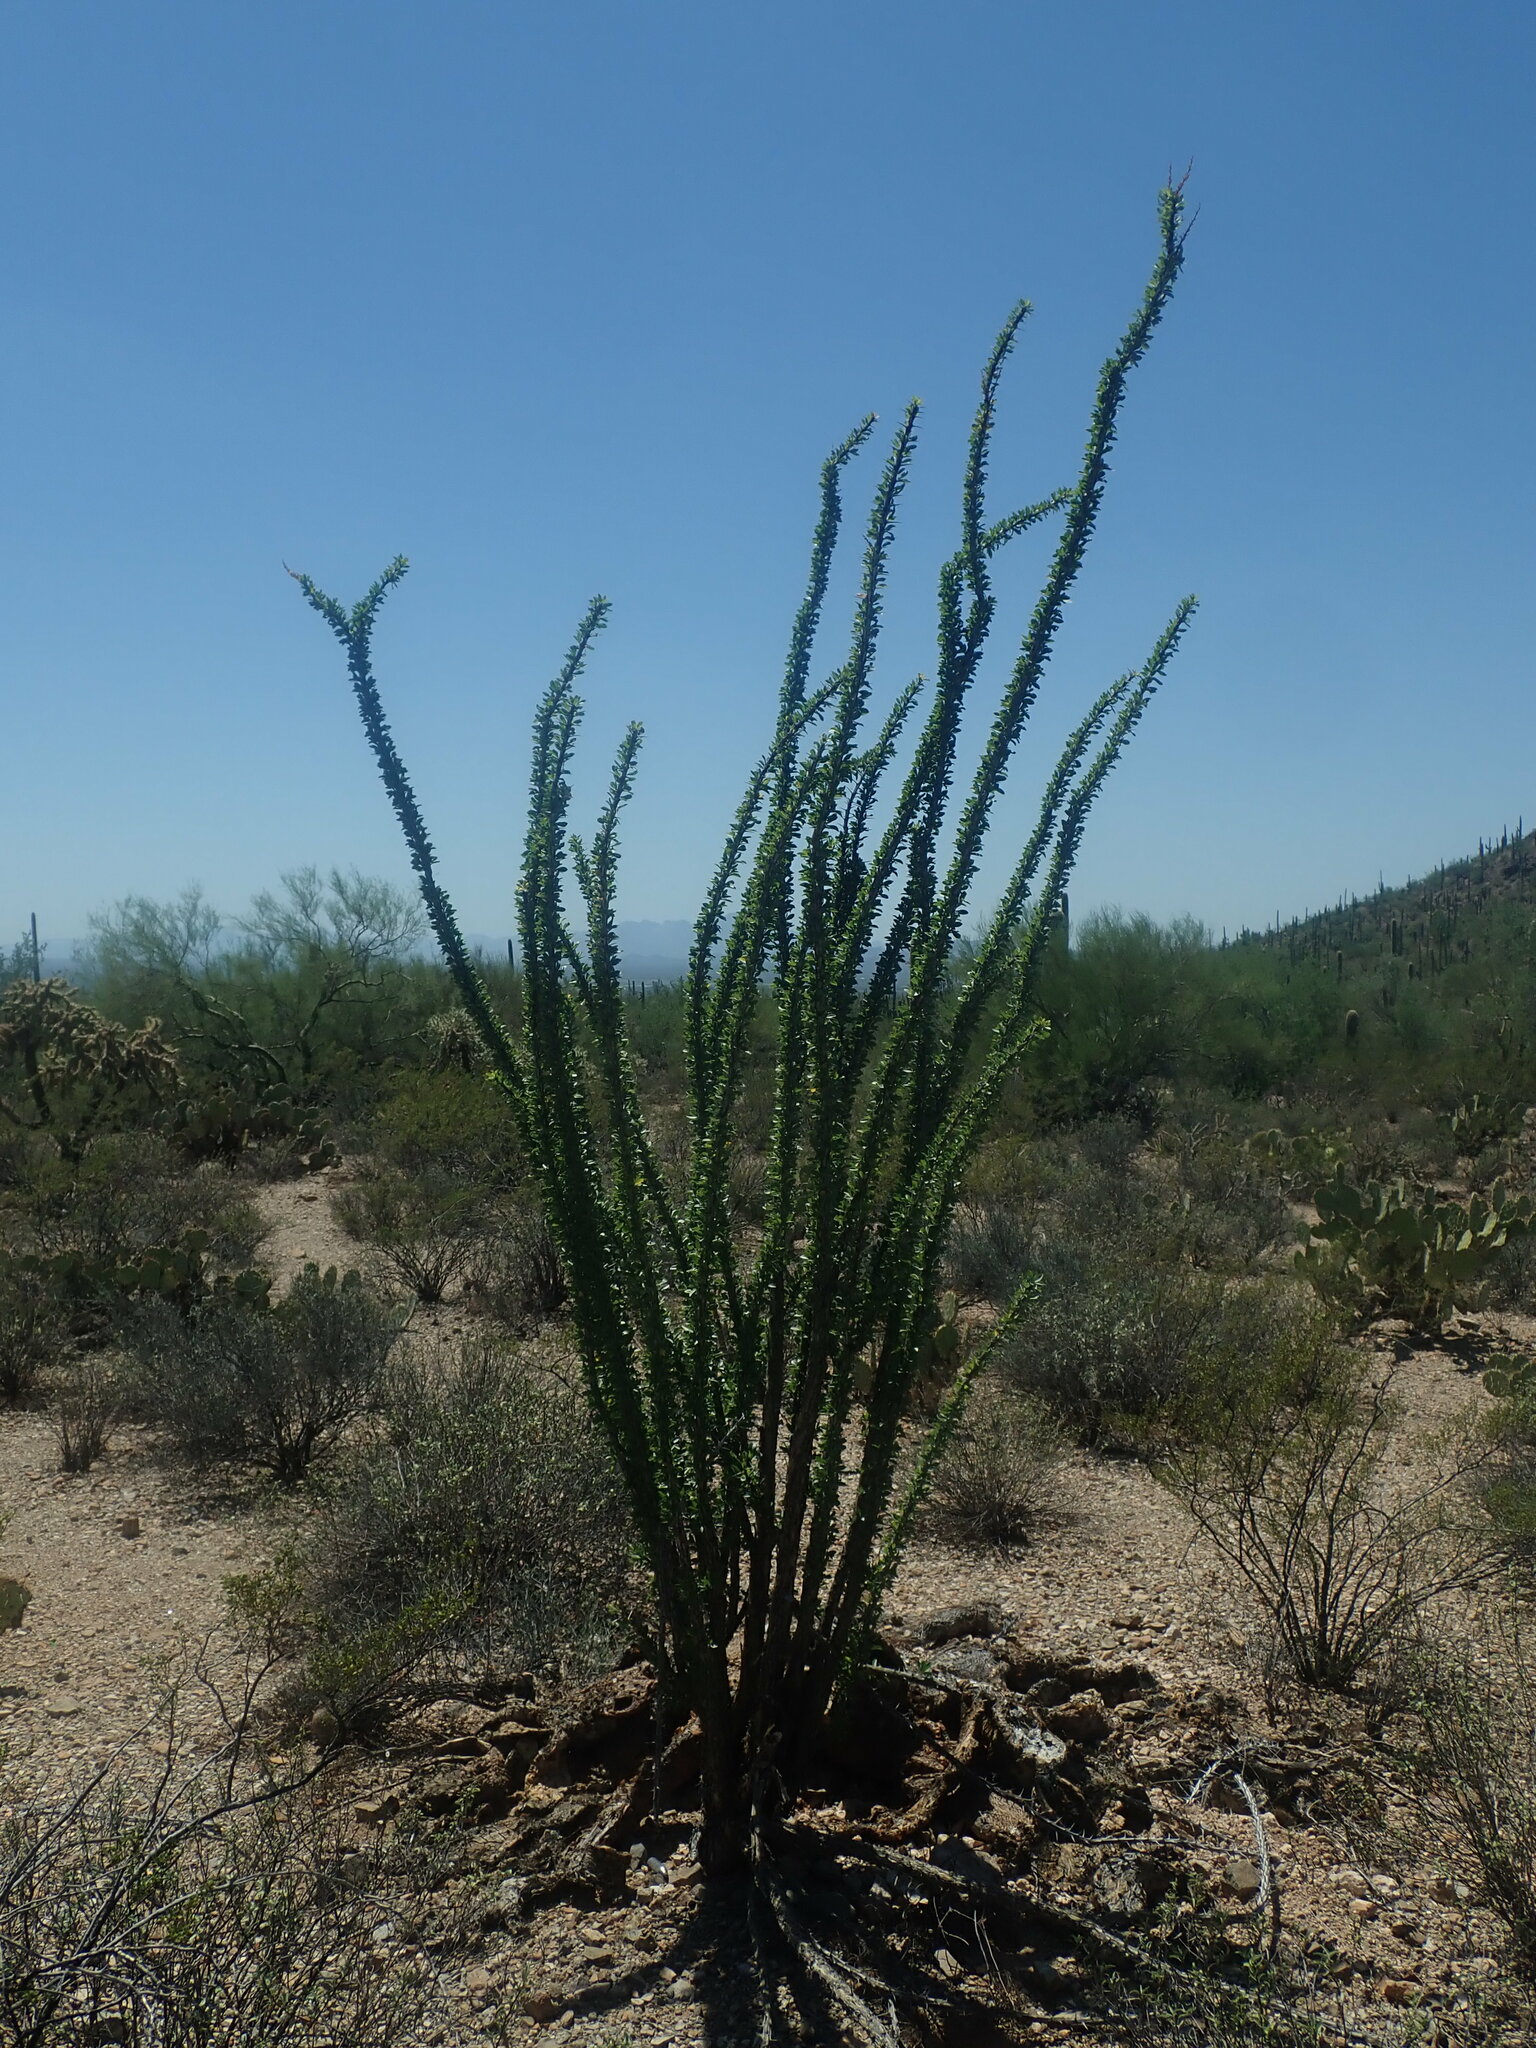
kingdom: Plantae
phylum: Tracheophyta
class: Magnoliopsida
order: Ericales
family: Fouquieriaceae
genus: Fouquieria
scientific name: Fouquieria splendens
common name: Vine-cactus
